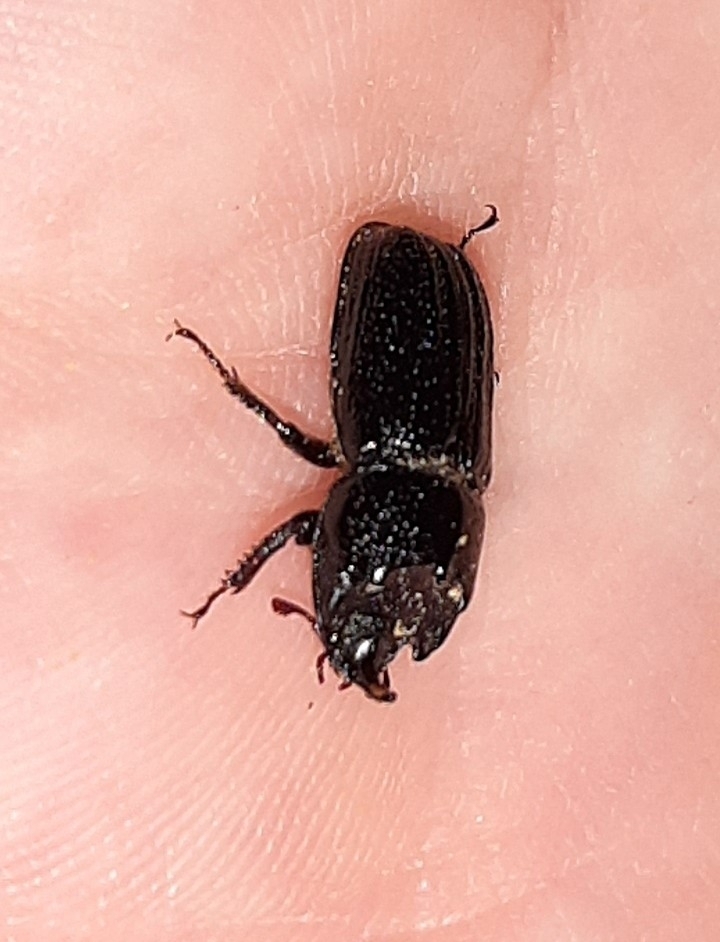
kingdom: Animalia
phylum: Arthropoda
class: Insecta
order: Coleoptera
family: Lucanidae
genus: Sinodendron
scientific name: Sinodendron cylindricum
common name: Rhinoceros beetle
